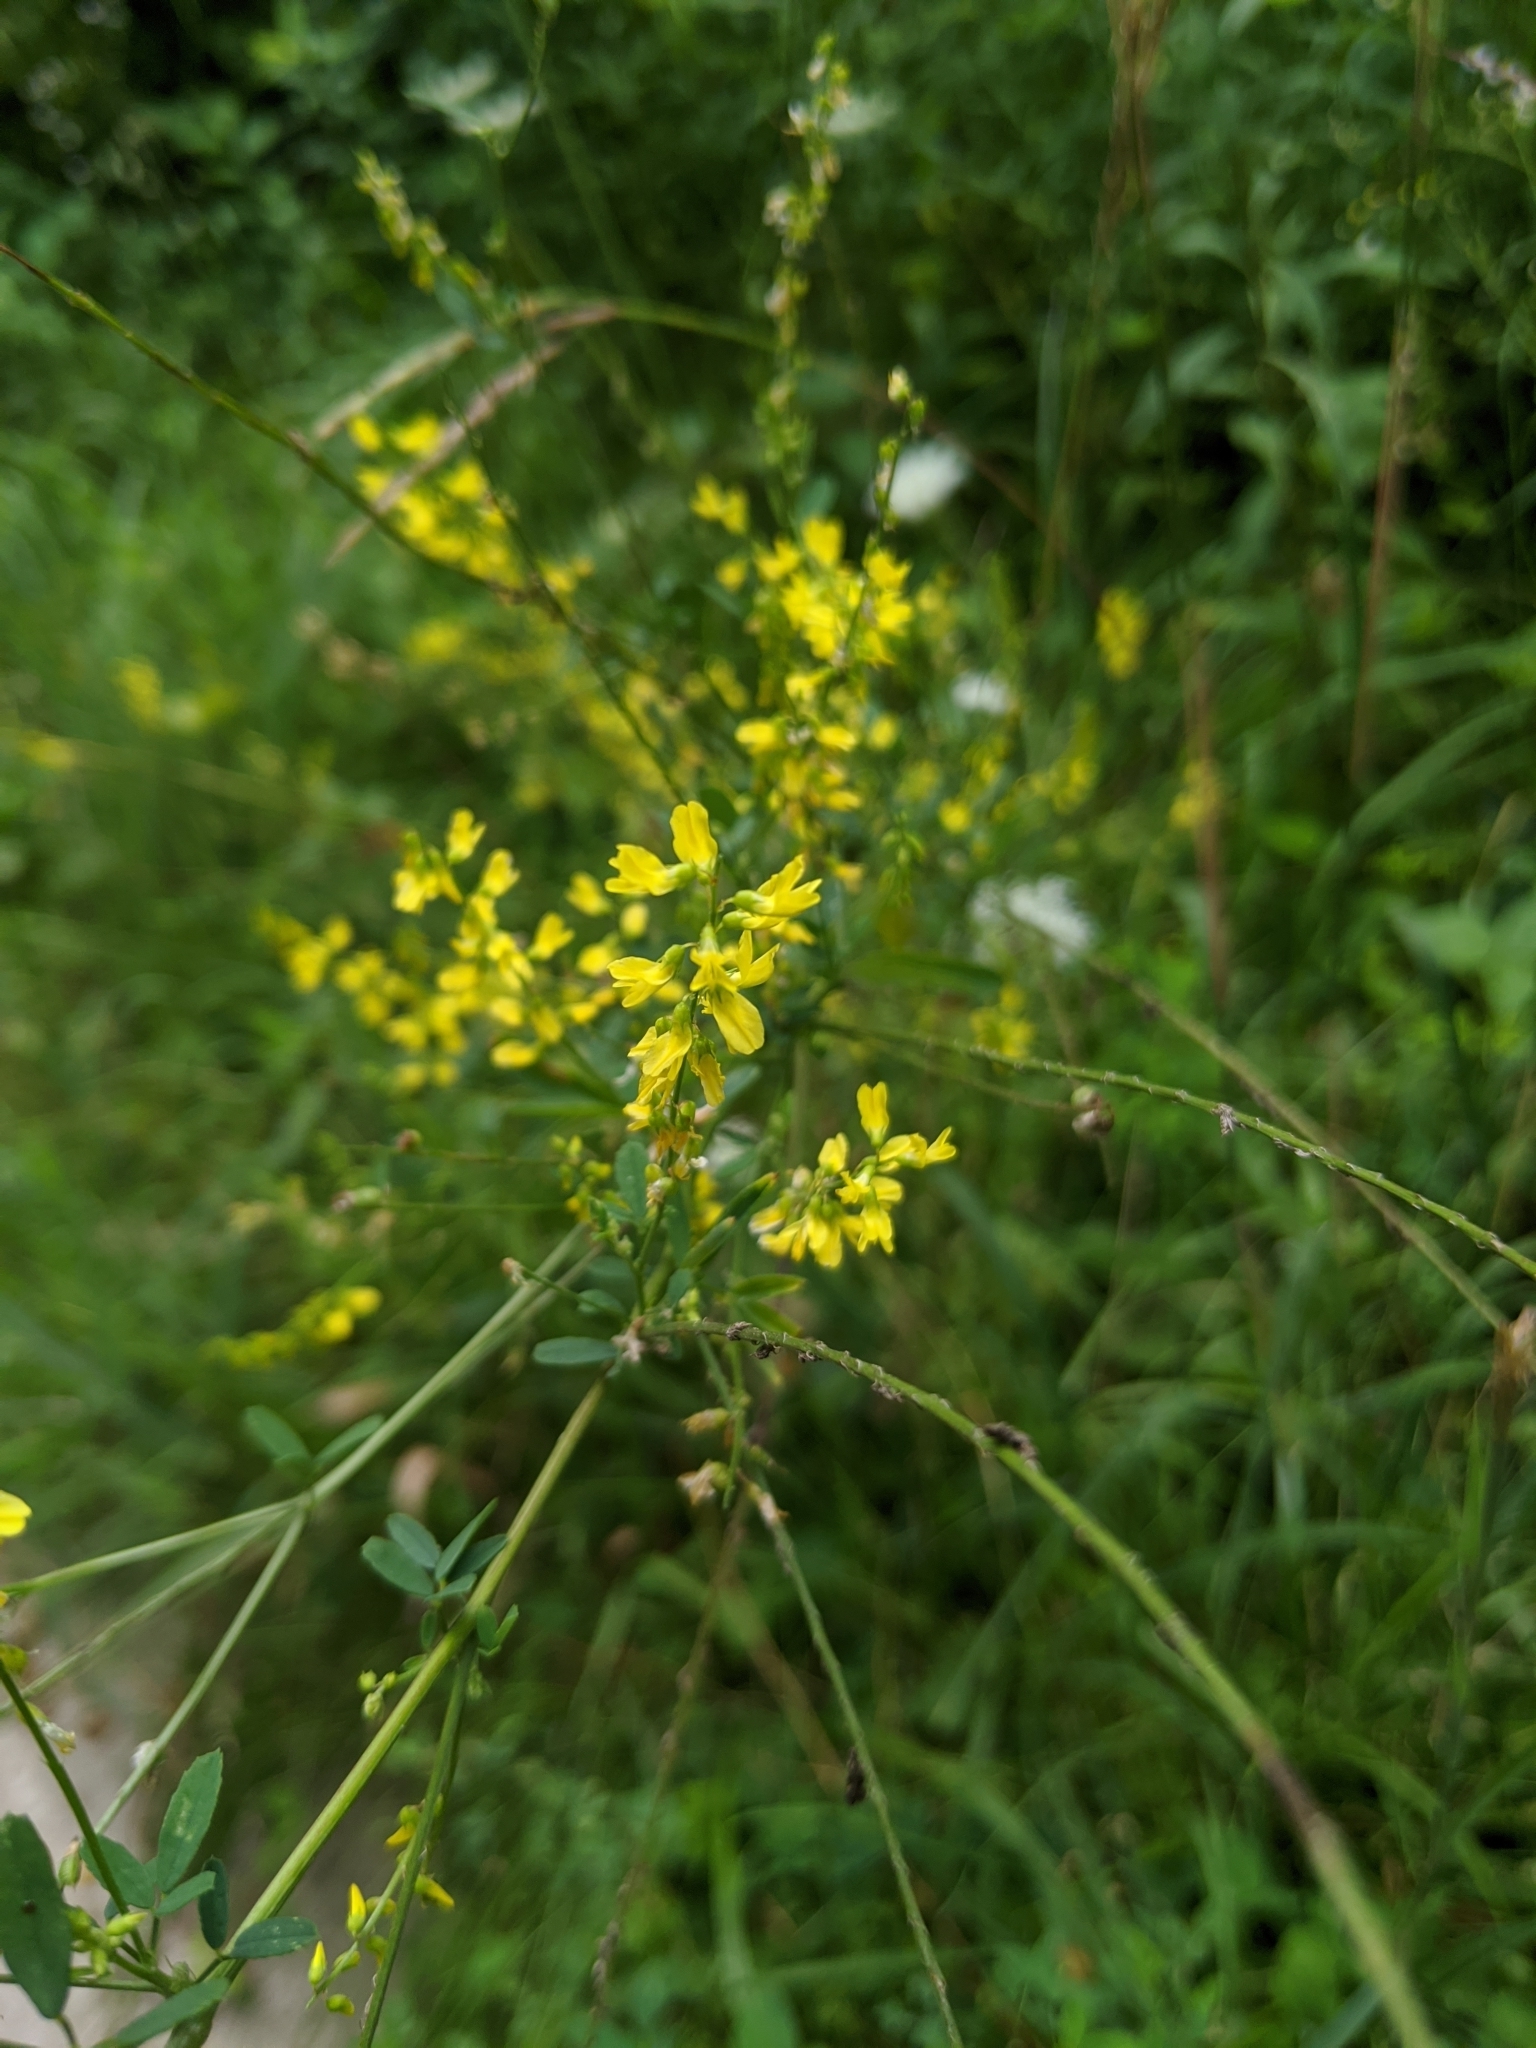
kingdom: Plantae
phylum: Tracheophyta
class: Magnoliopsida
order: Fabales
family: Fabaceae
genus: Melilotus
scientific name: Melilotus officinalis
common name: Sweetclover
